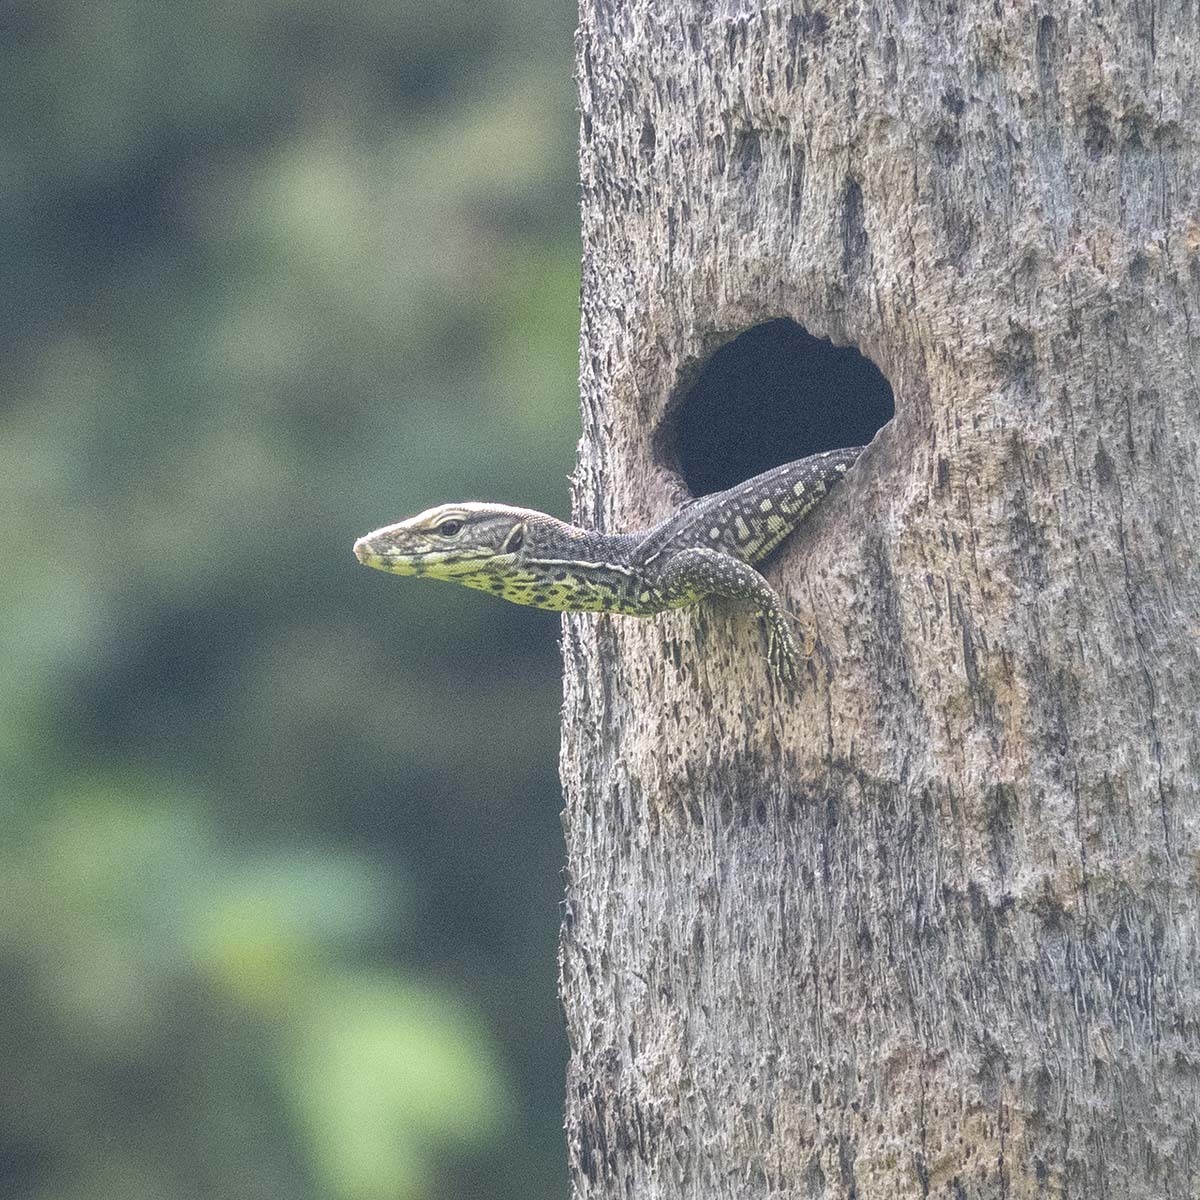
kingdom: Animalia
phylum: Chordata
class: Squamata
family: Varanidae
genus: Varanus
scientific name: Varanus bengalensis
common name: Bengal monitor
